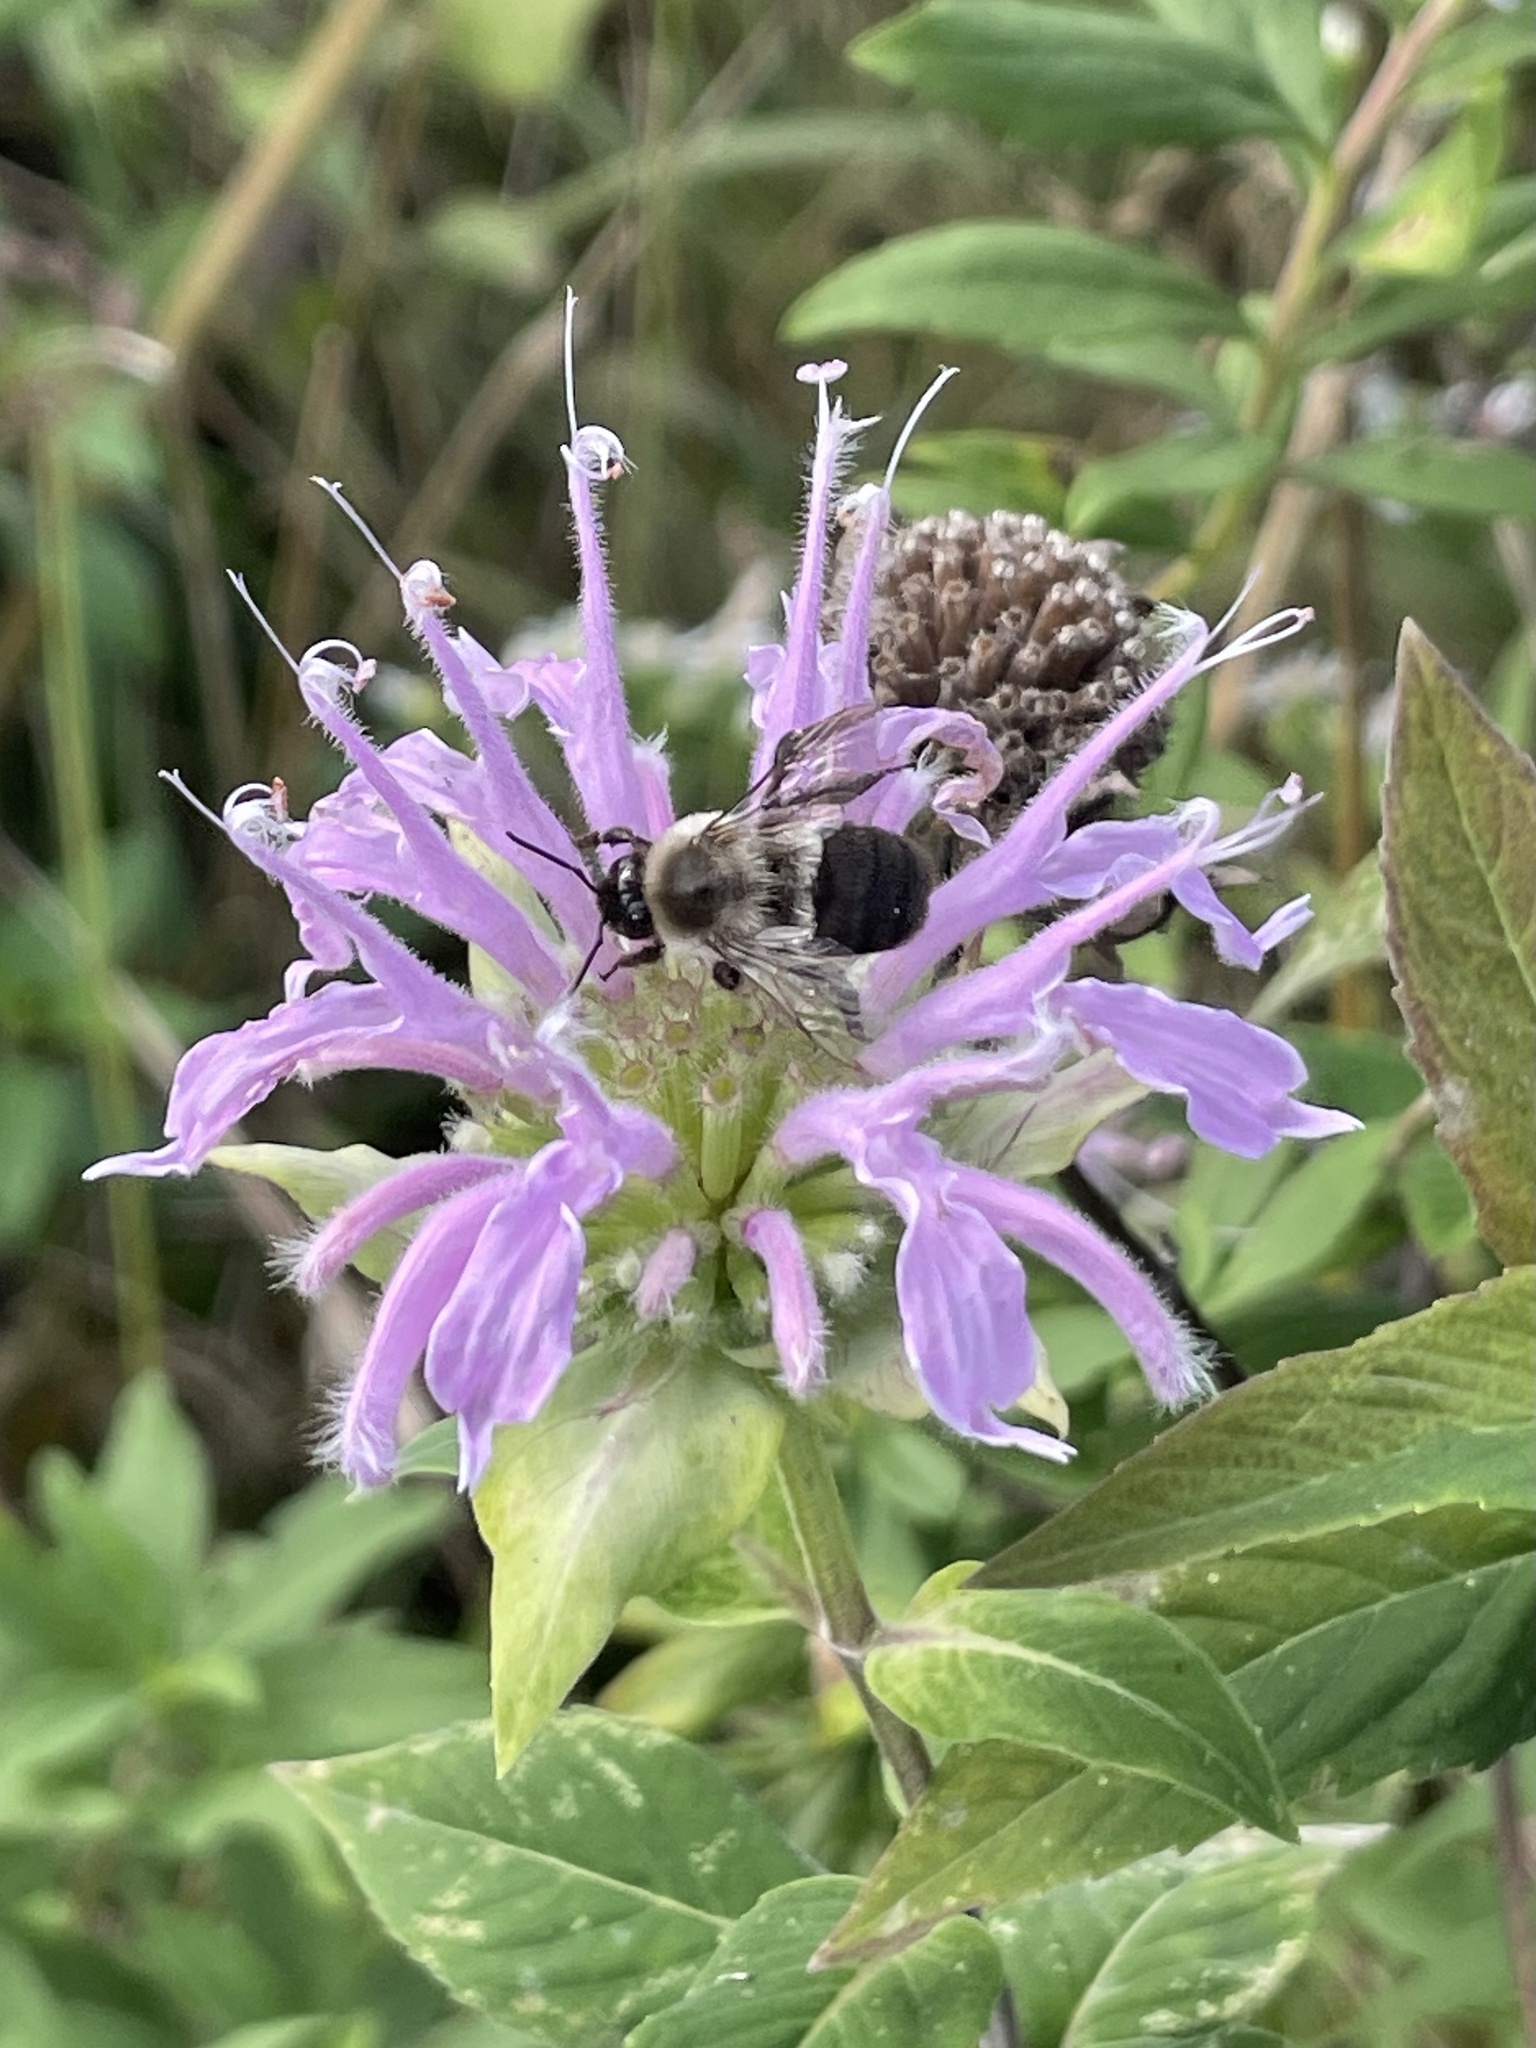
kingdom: Plantae
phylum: Tracheophyta
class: Magnoliopsida
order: Lamiales
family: Lamiaceae
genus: Monarda
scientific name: Monarda fistulosa
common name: Purple beebalm
